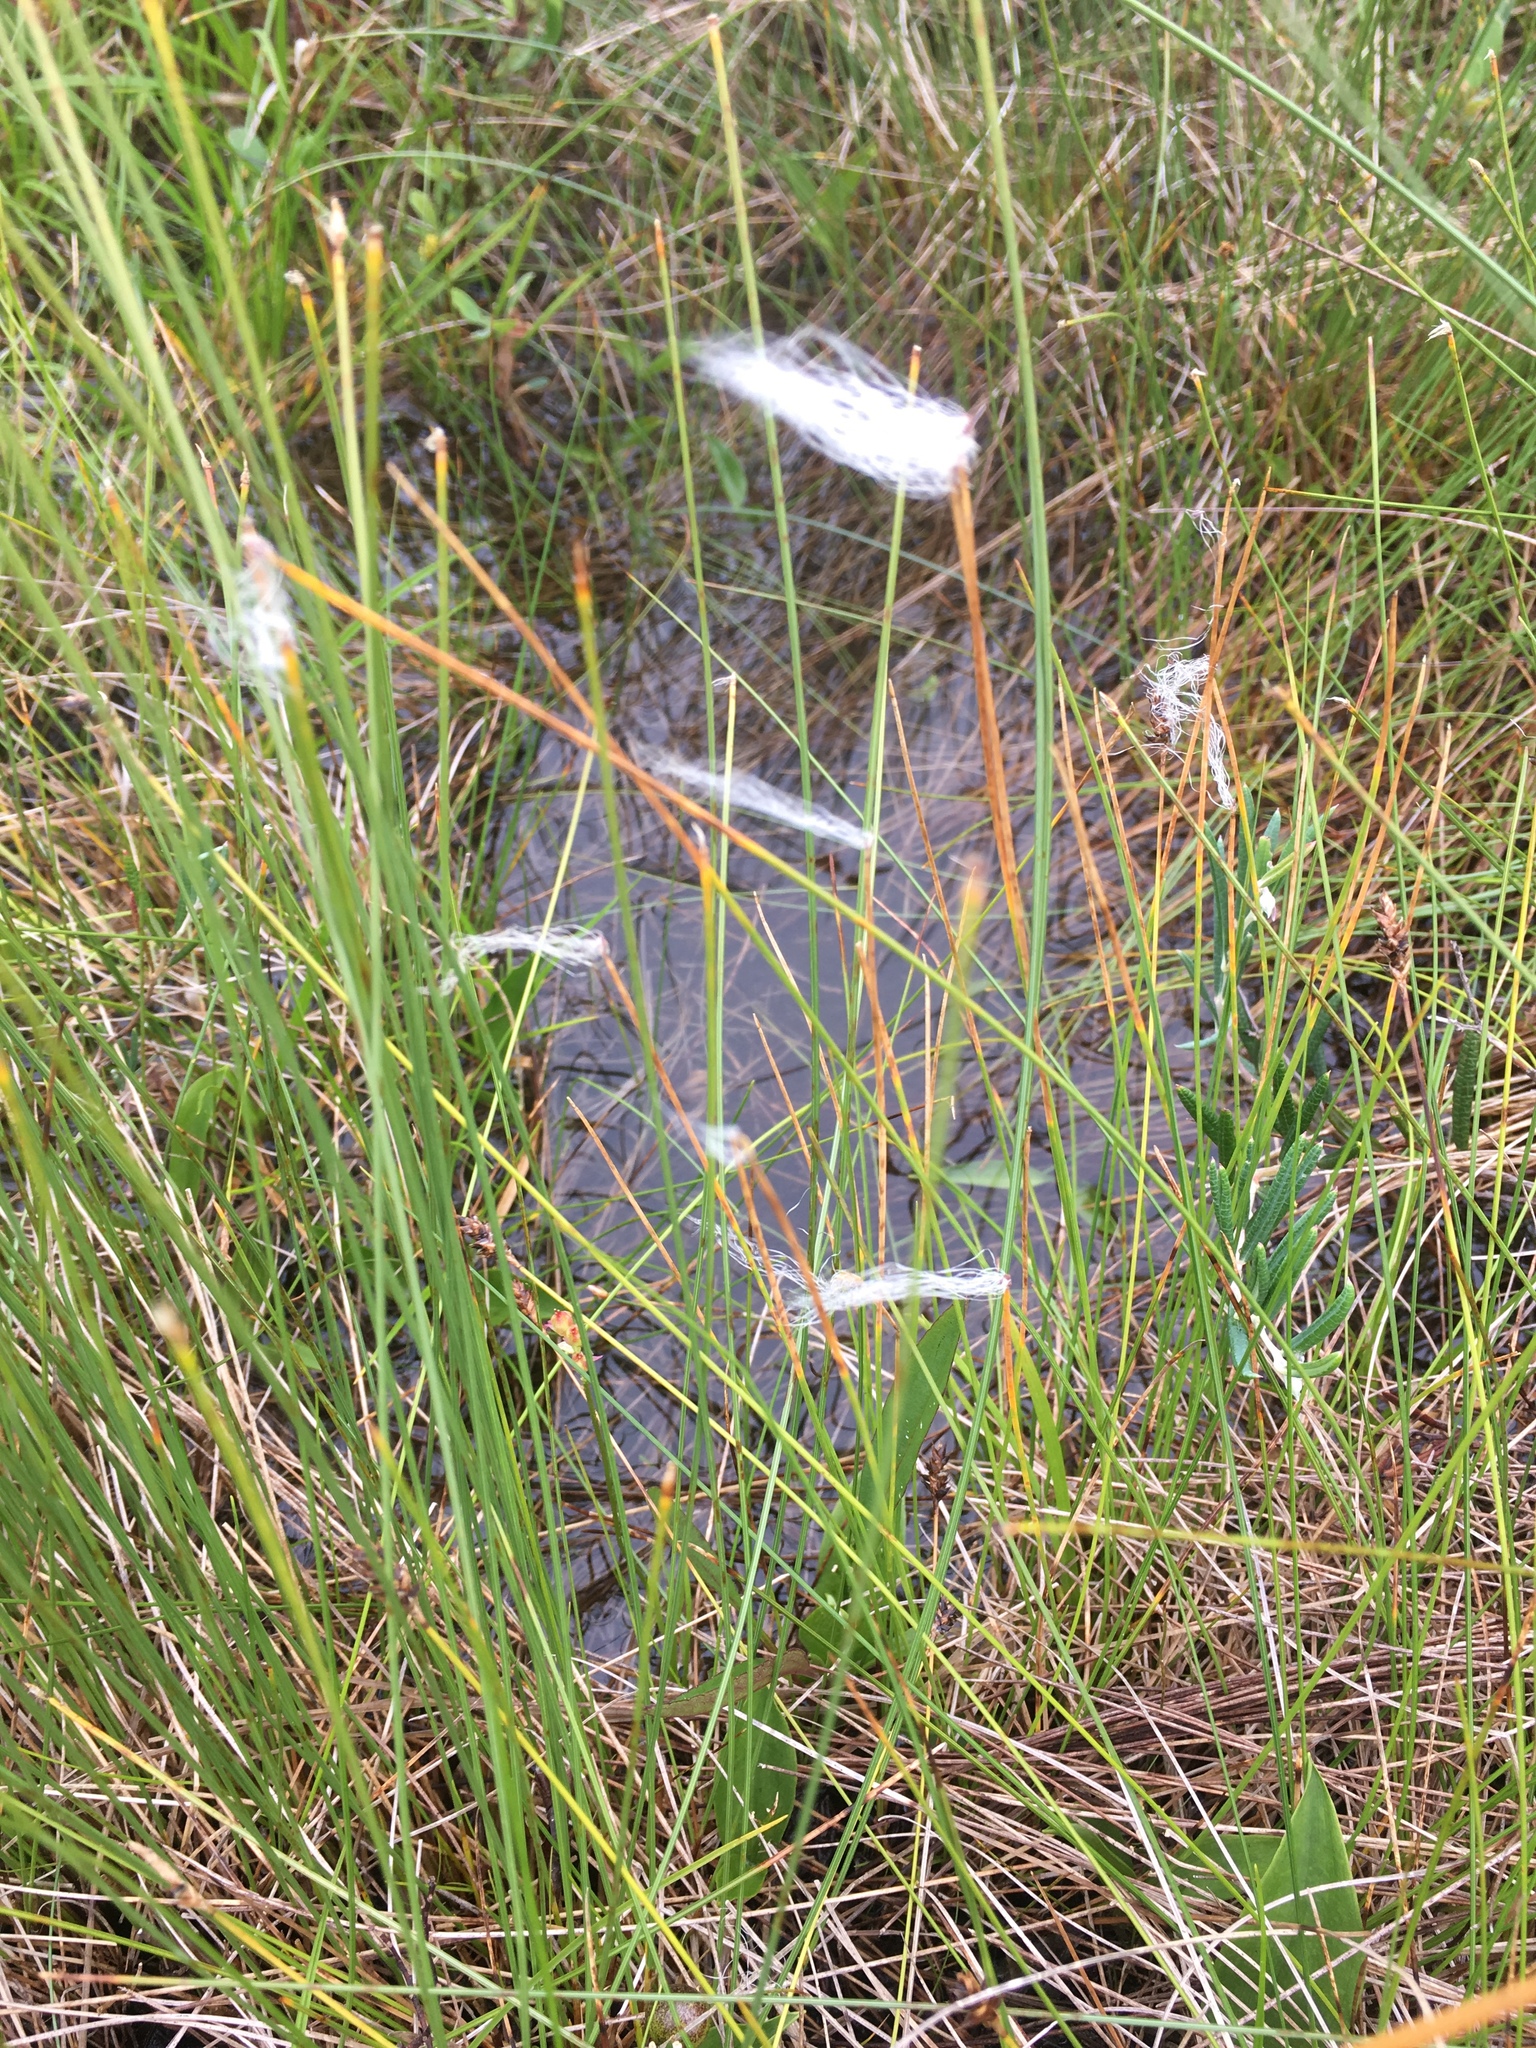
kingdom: Plantae
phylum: Tracheophyta
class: Liliopsida
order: Poales
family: Cyperaceae
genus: Trichophorum
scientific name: Trichophorum alpinum
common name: Alpine bulrush
